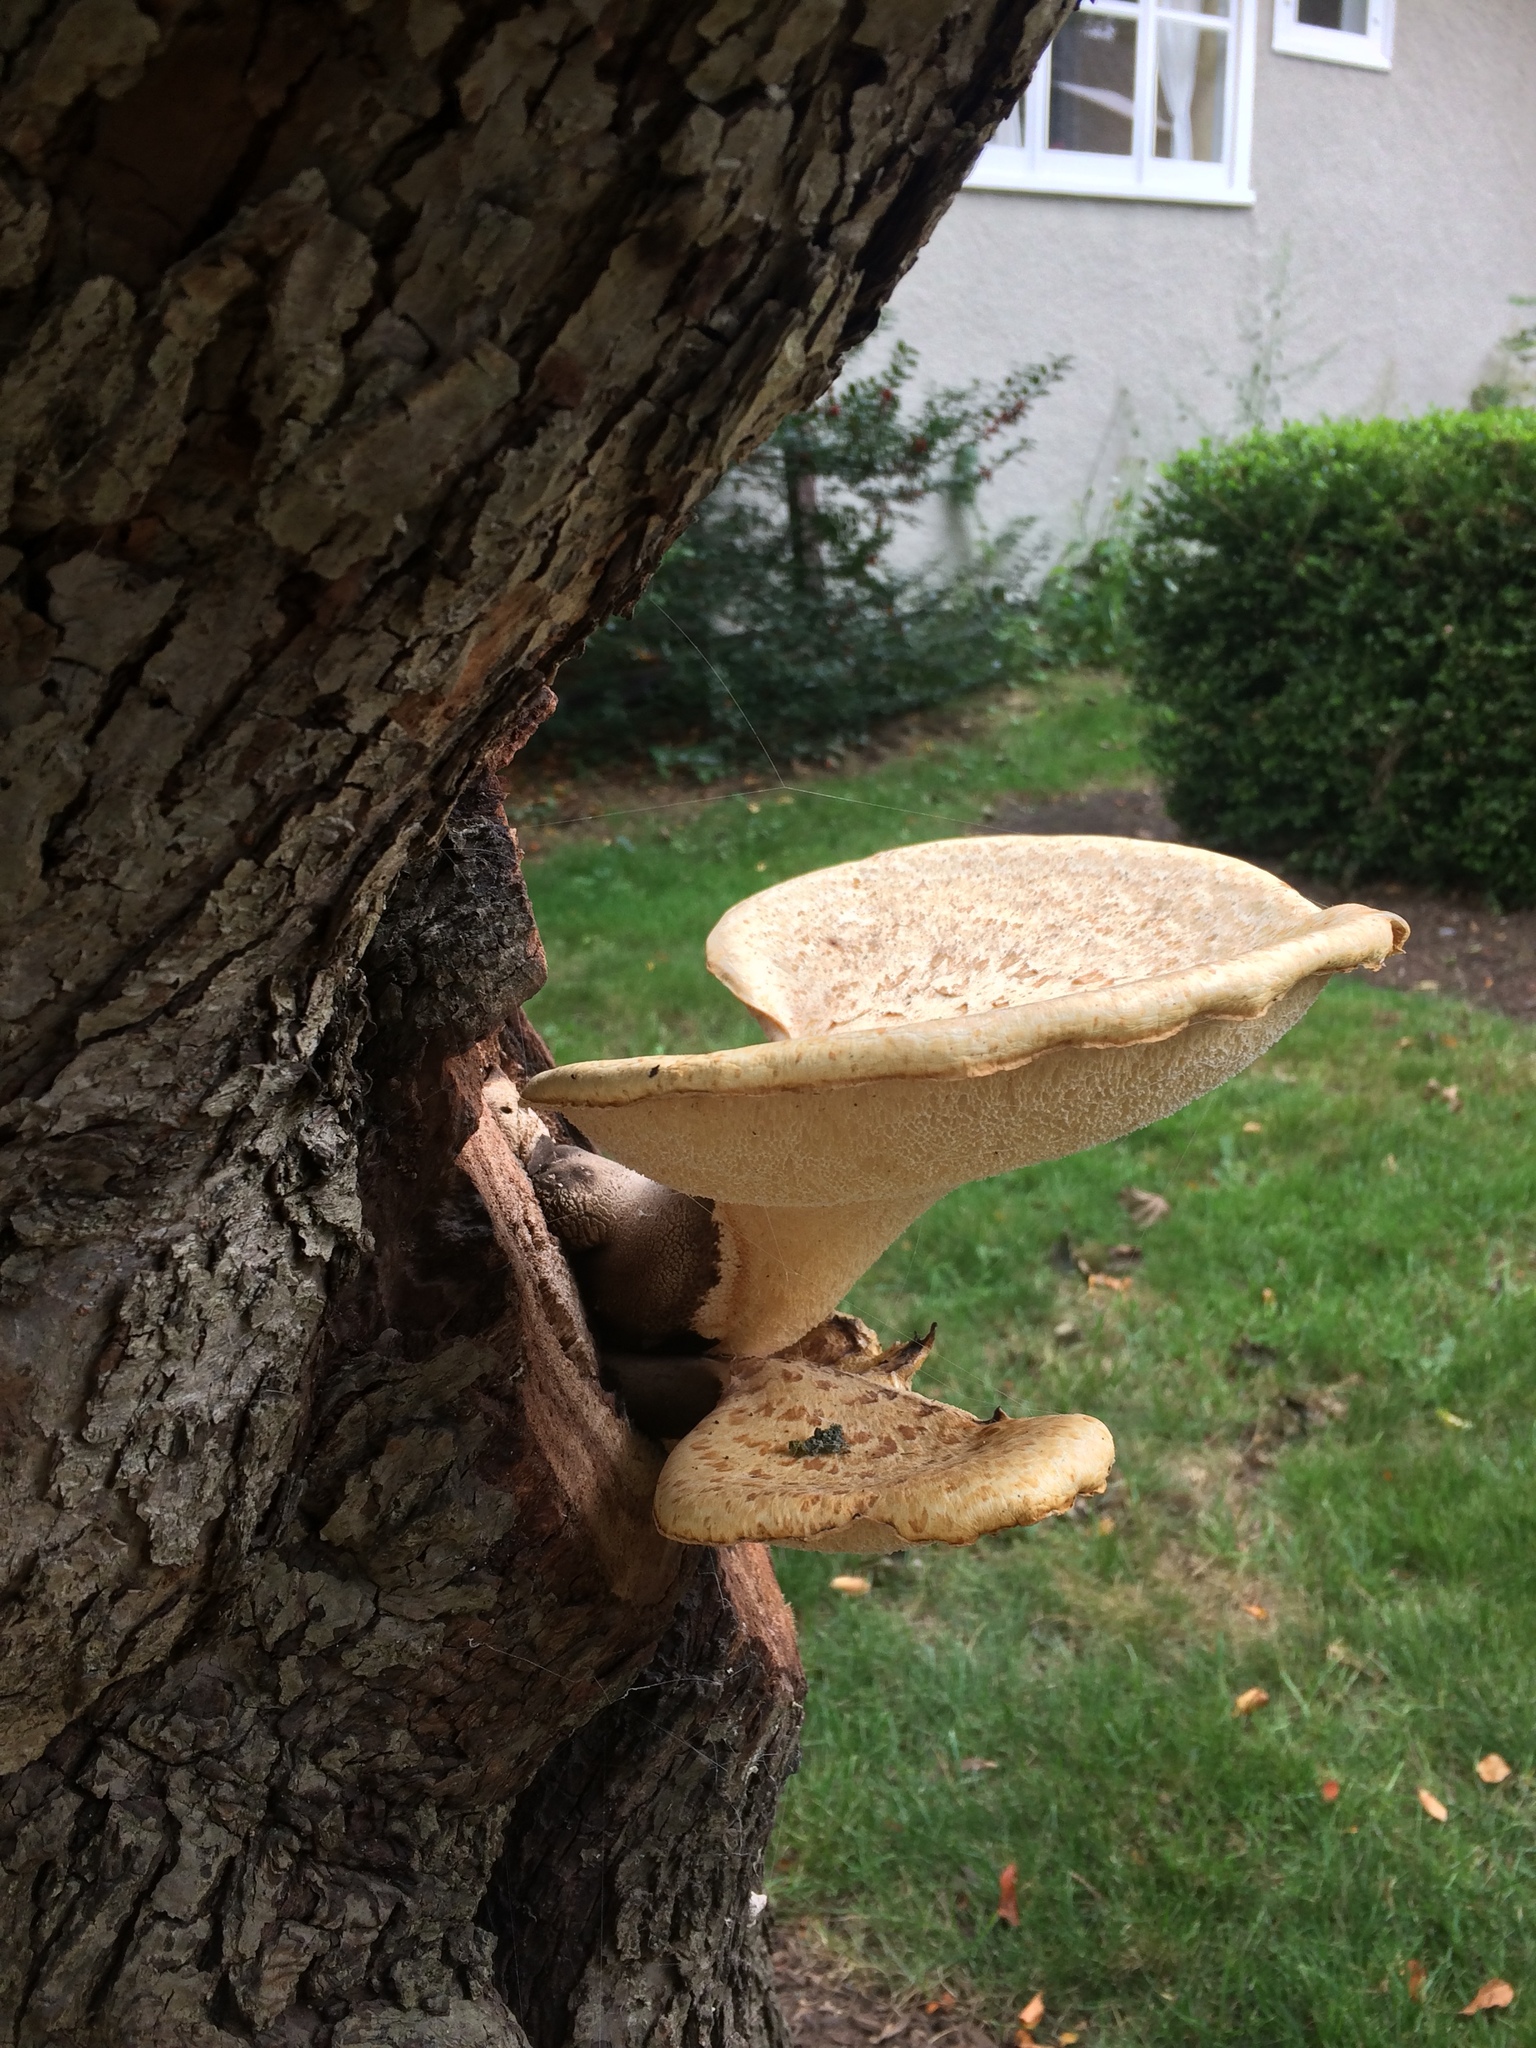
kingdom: Fungi
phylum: Basidiomycota
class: Agaricomycetes
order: Polyporales
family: Polyporaceae
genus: Cerioporus
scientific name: Cerioporus squamosus
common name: Dryad's saddle
